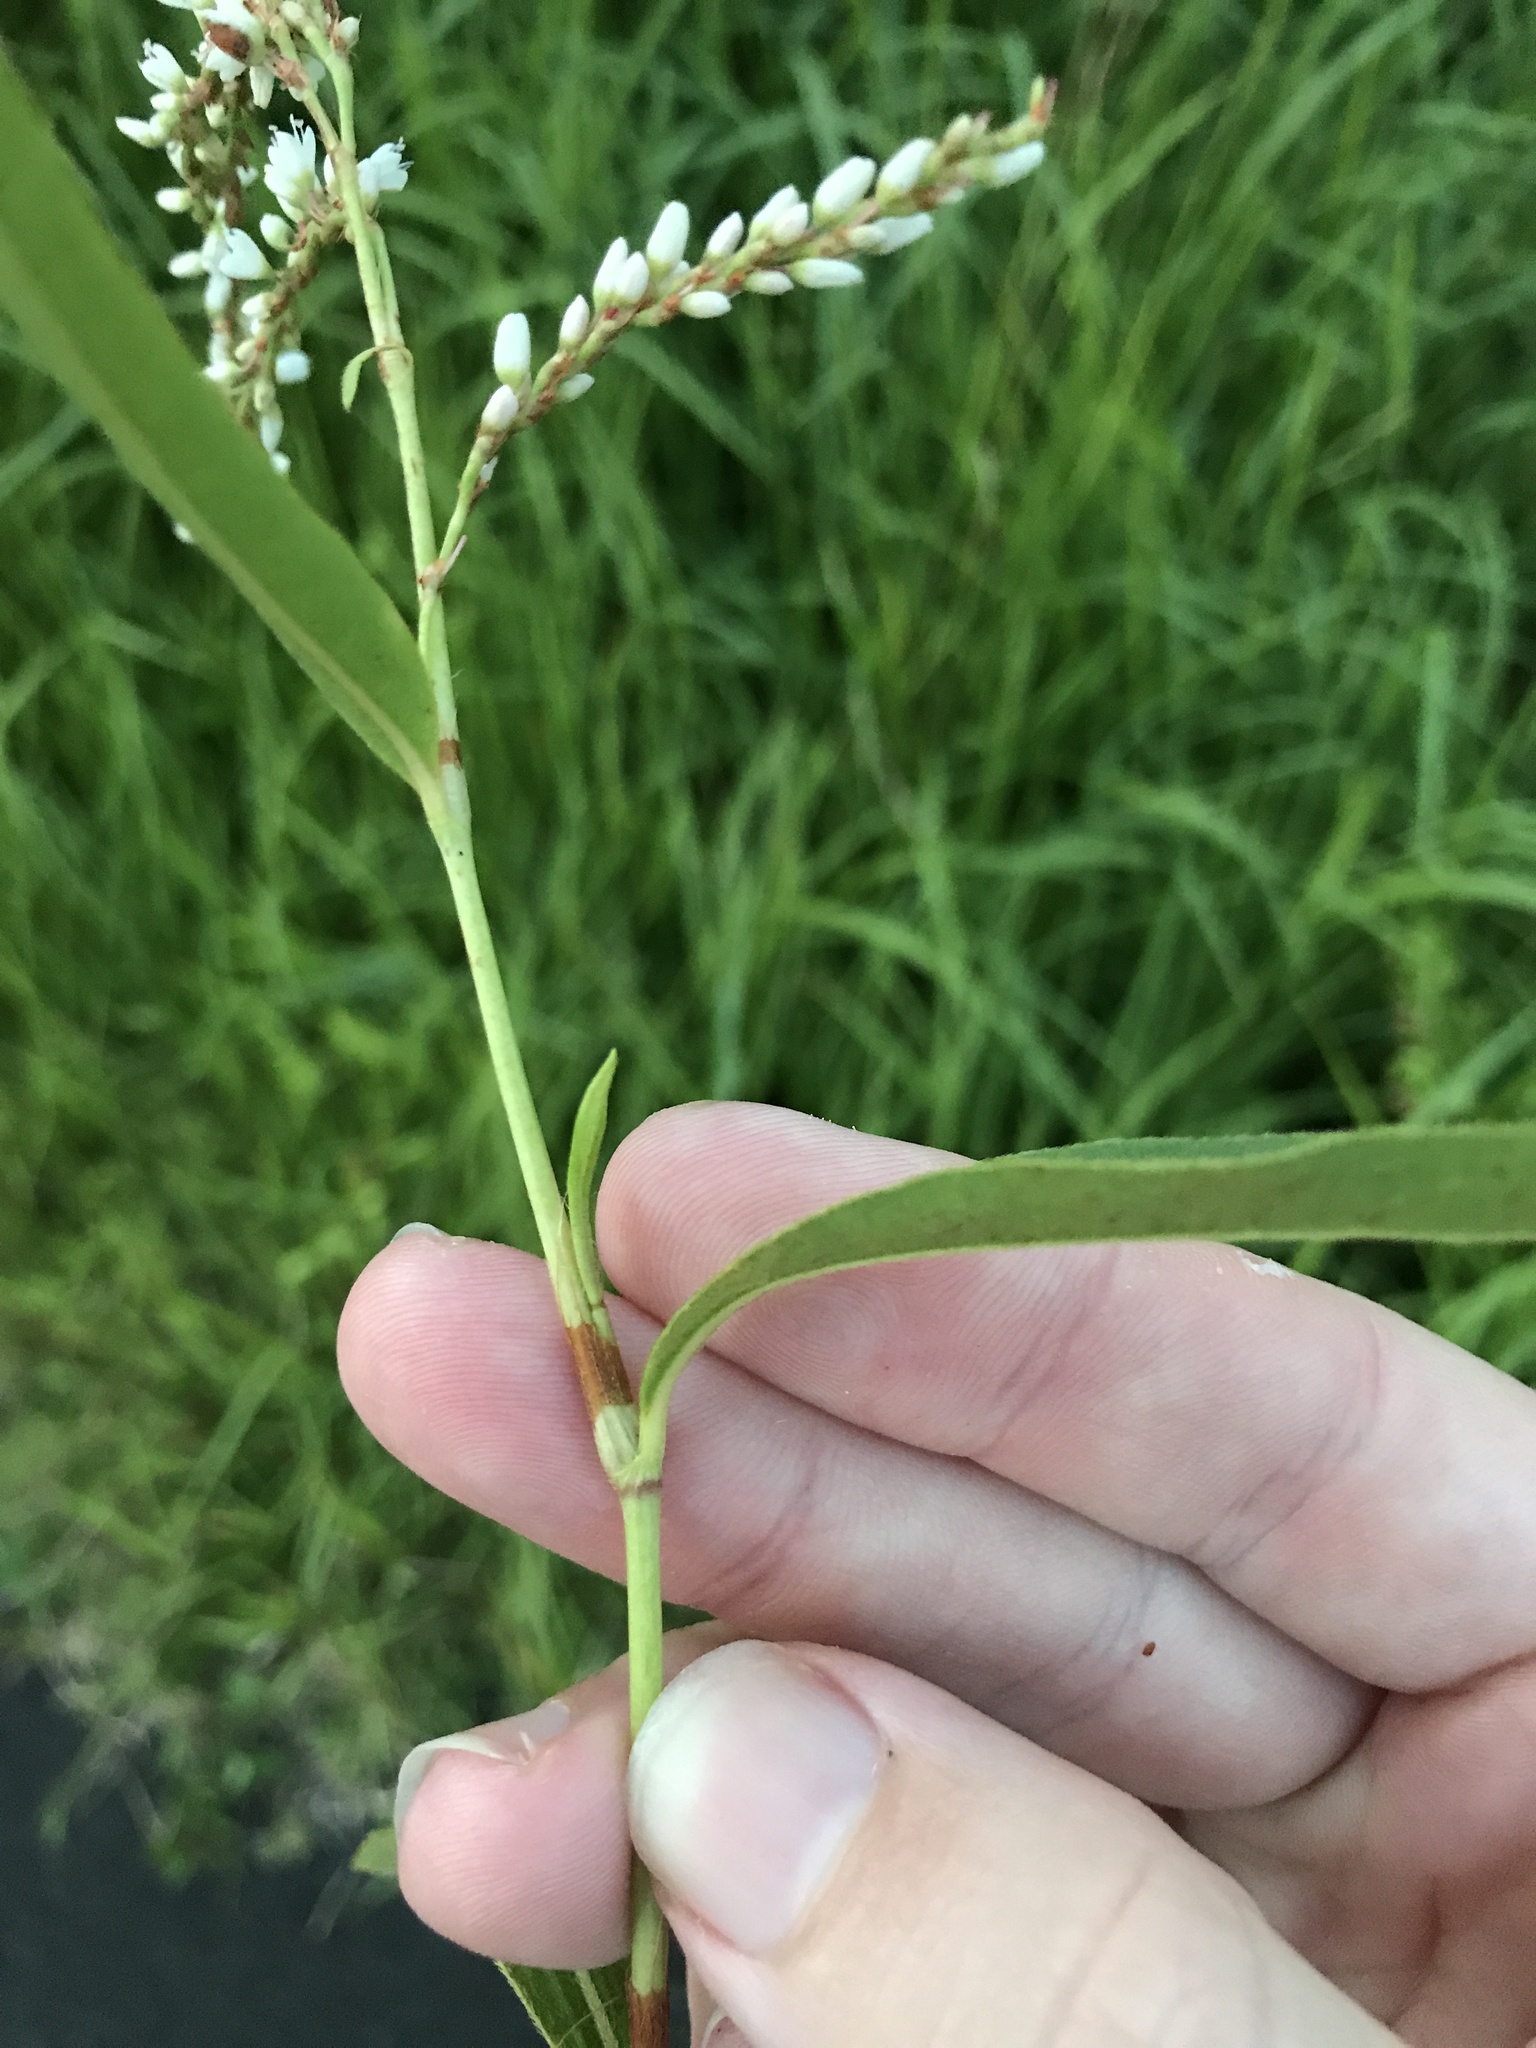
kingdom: Plantae
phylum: Tracheophyta
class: Magnoliopsida
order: Caryophyllales
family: Polygonaceae
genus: Persicaria
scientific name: Persicaria japonica
